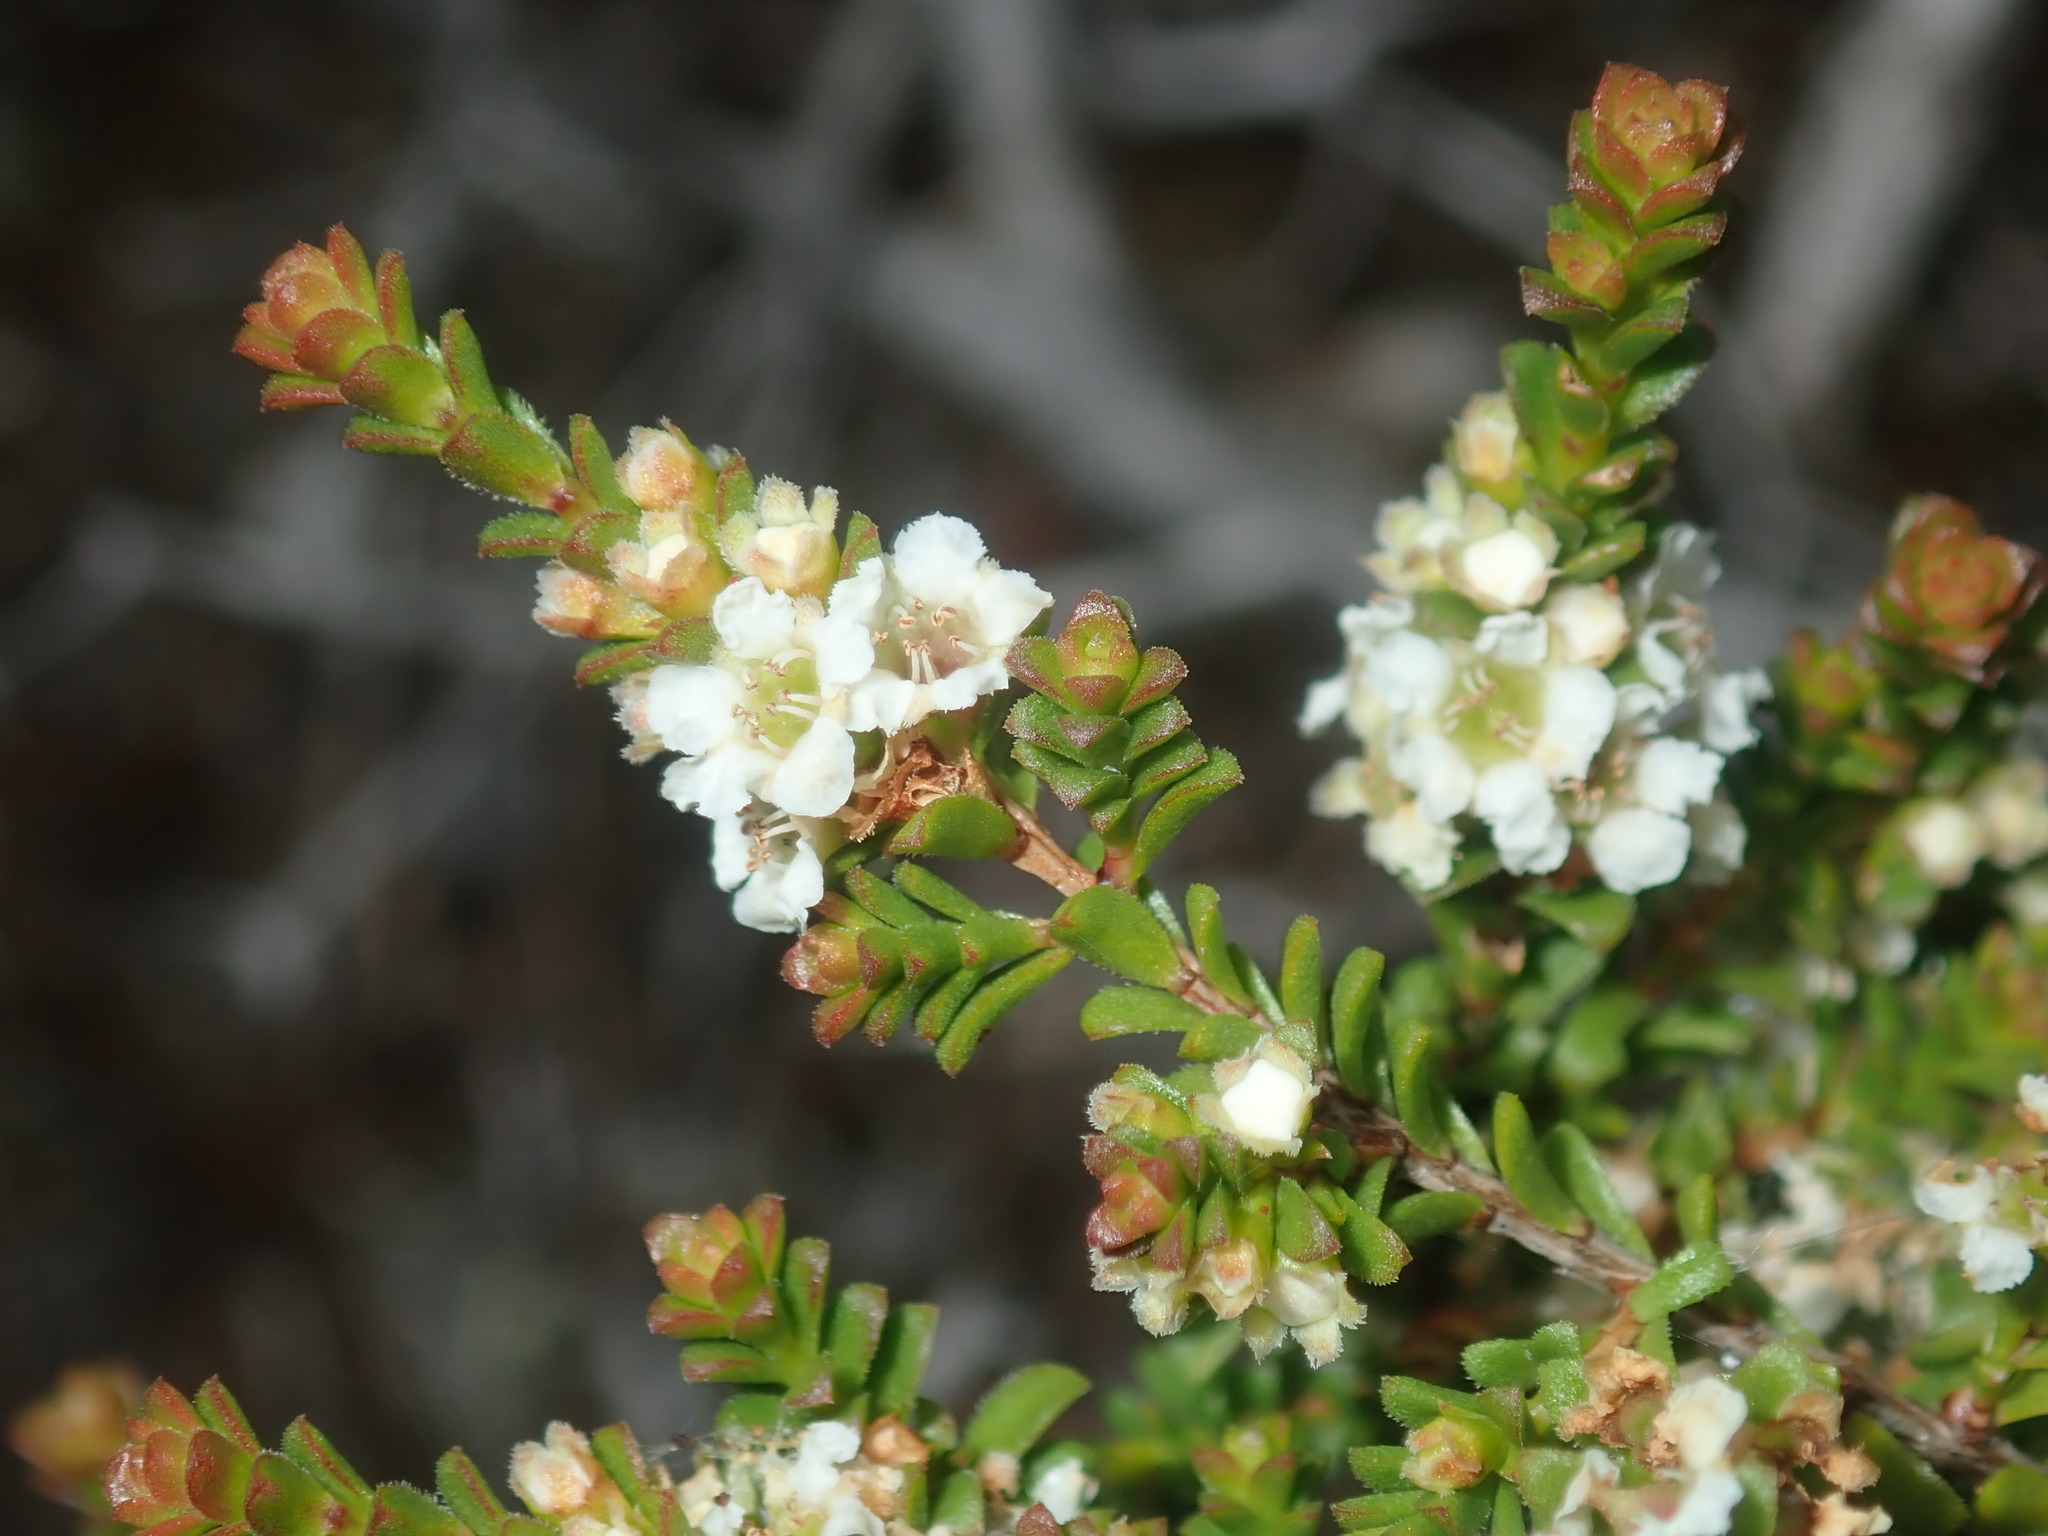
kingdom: Plantae
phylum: Tracheophyta
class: Magnoliopsida
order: Myrtales
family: Myrtaceae
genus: Baeckea
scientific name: Baeckea diosmifolia
